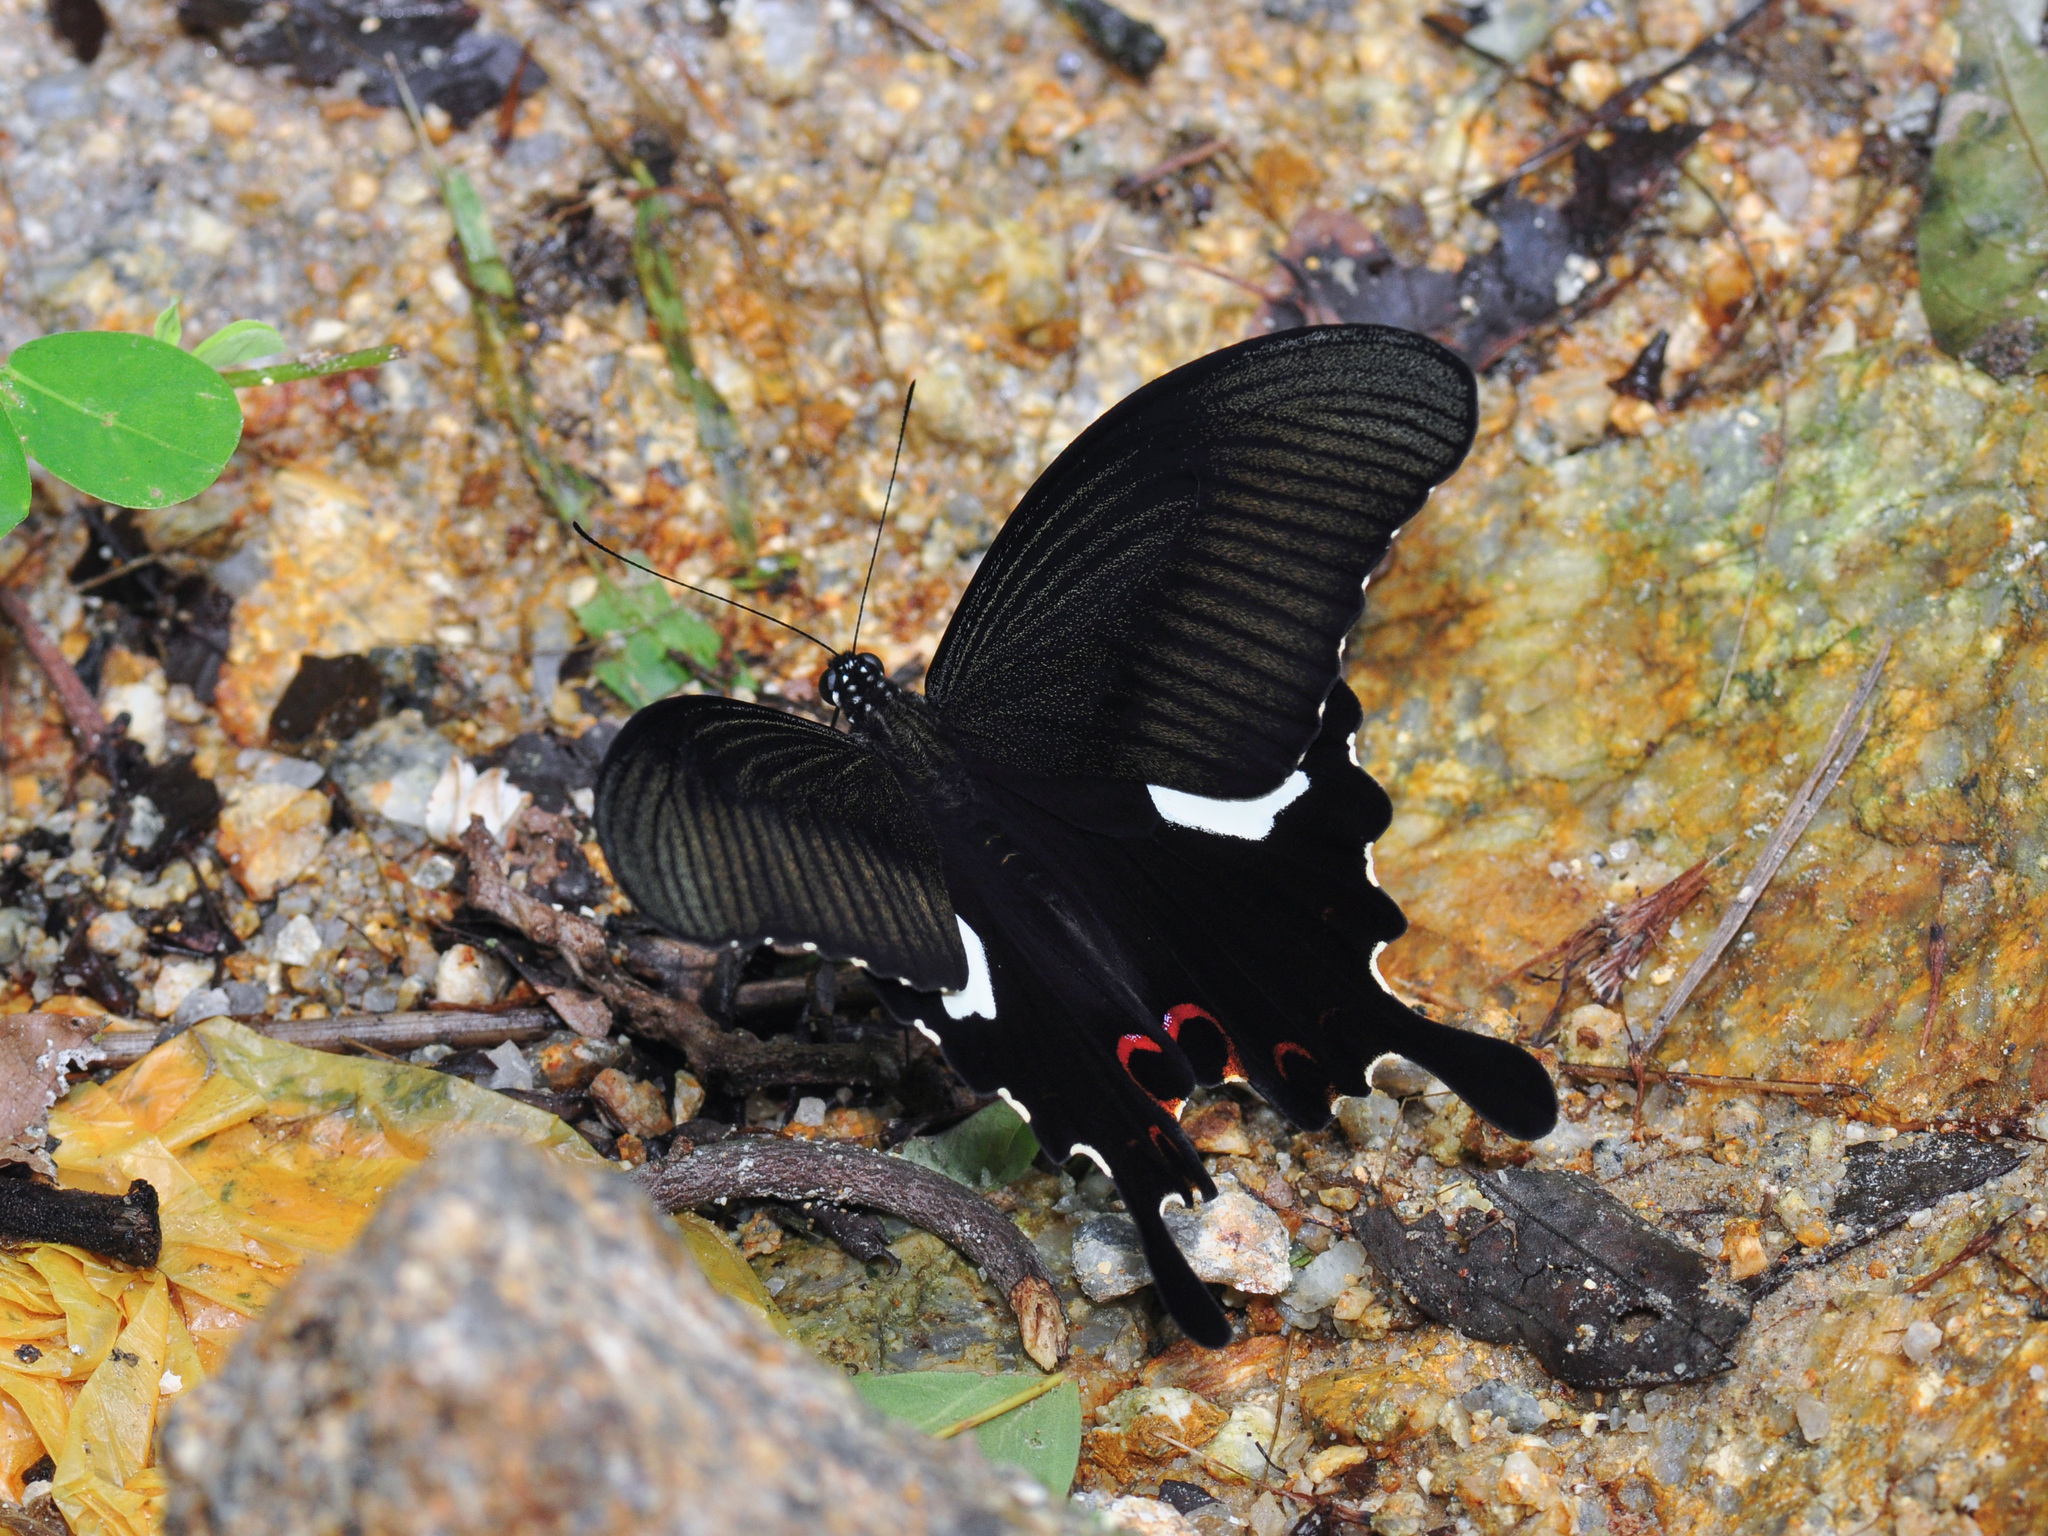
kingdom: Animalia
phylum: Arthropoda
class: Insecta
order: Lepidoptera
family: Papilionidae
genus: Papilio
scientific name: Papilio helenus
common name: Red helen
